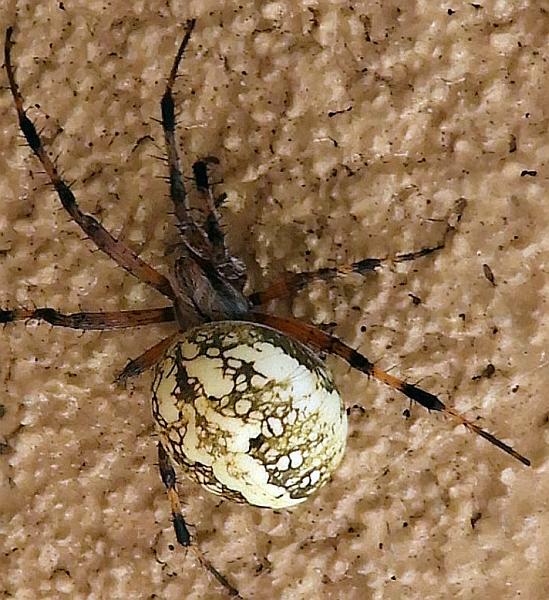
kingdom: Animalia
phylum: Arthropoda
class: Arachnida
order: Araneae
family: Araneidae
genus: Neoscona
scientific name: Neoscona oaxacensis
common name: Orb weavers
